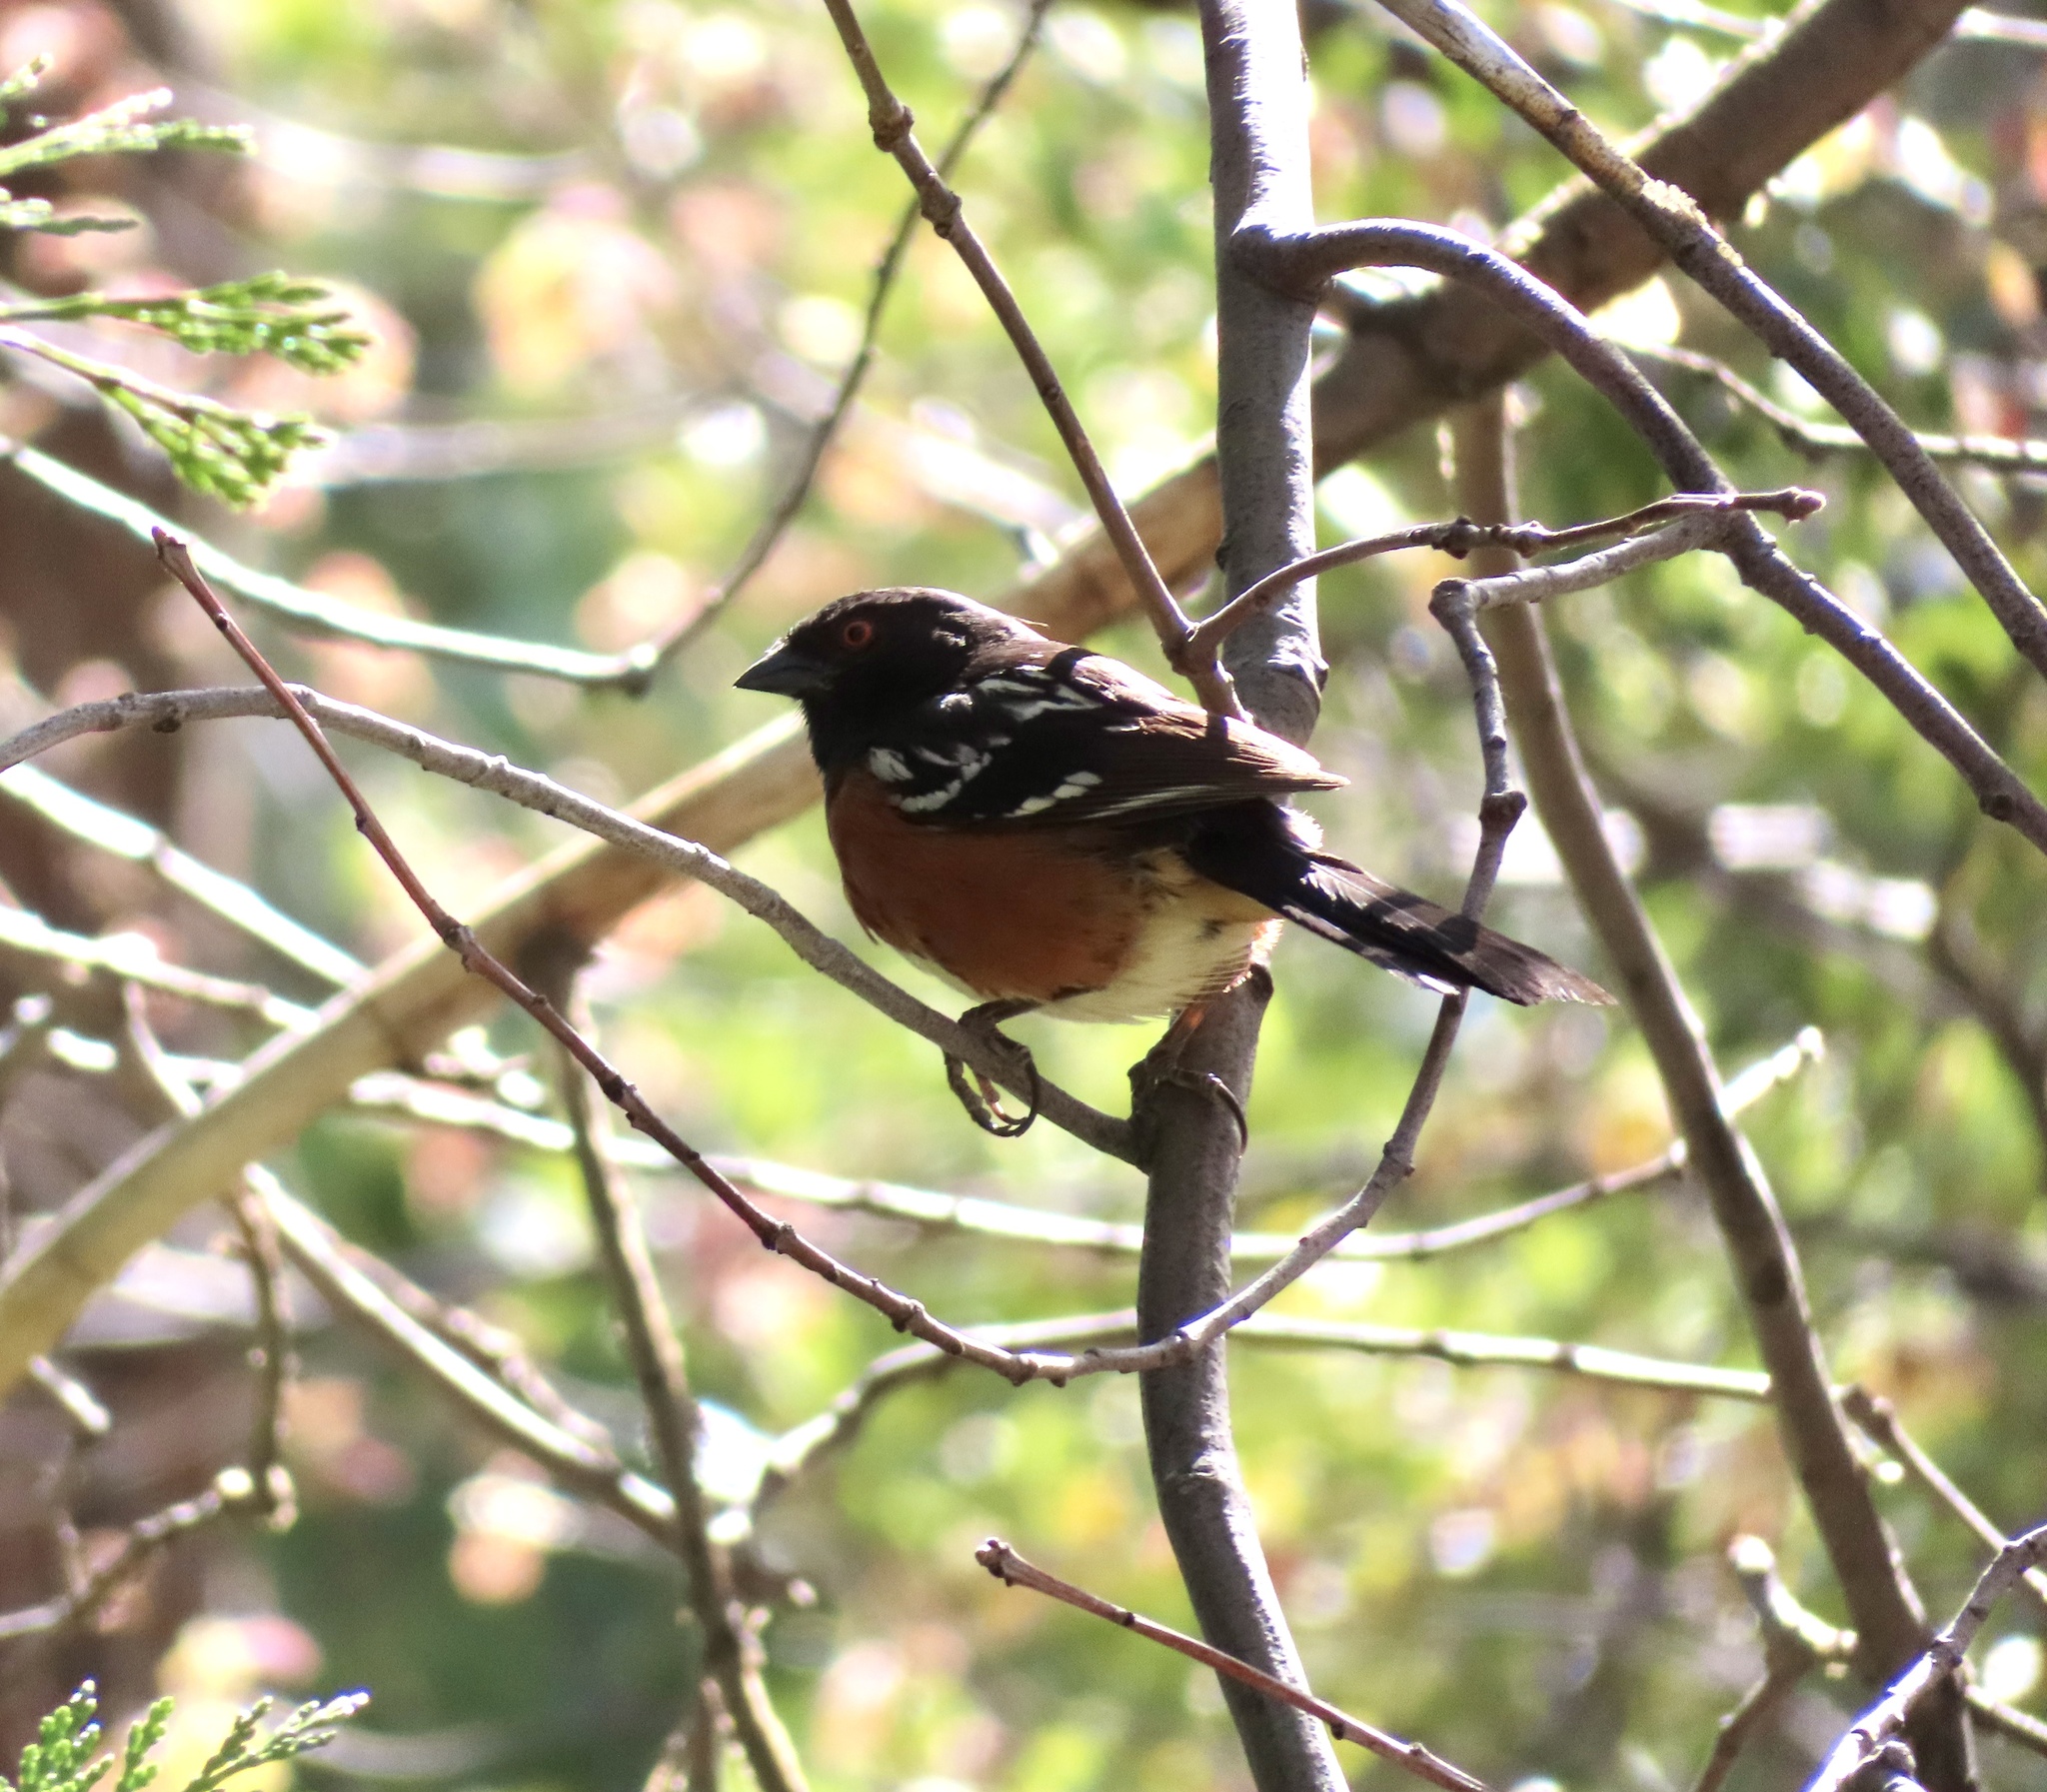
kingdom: Animalia
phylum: Chordata
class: Aves
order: Passeriformes
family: Passerellidae
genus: Pipilo
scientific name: Pipilo maculatus
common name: Spotted towhee
